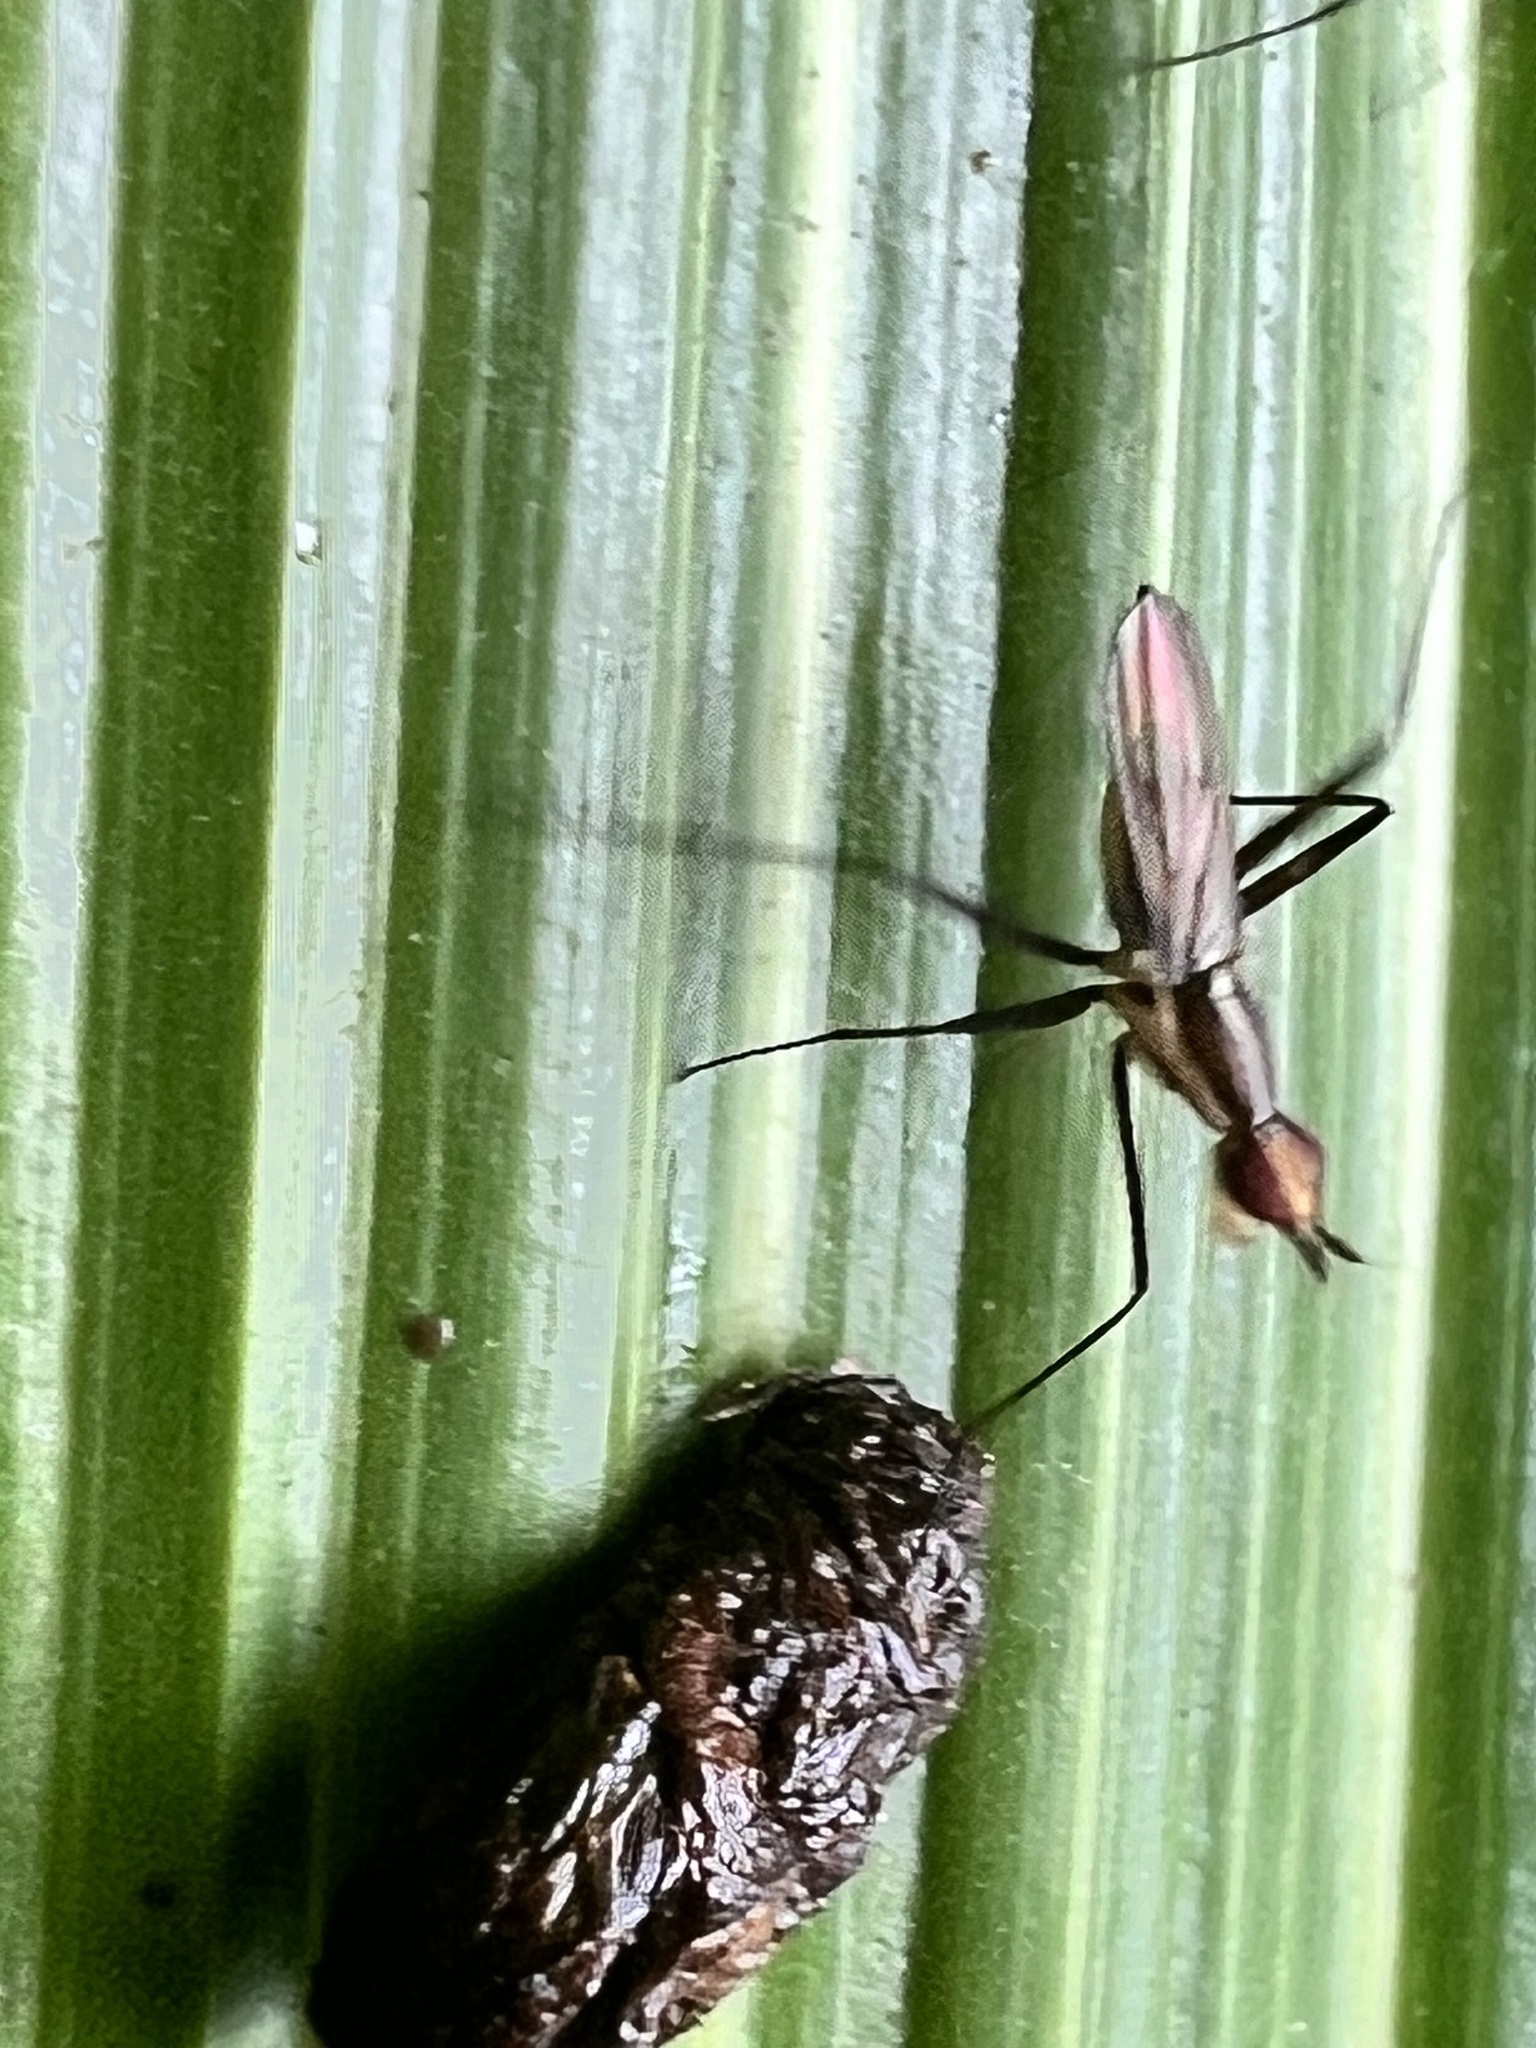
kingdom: Animalia
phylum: Arthropoda
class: Insecta
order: Diptera
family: Neriidae
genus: Telostylinus
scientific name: Telostylinus lineolatus
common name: Banana stalk fly
